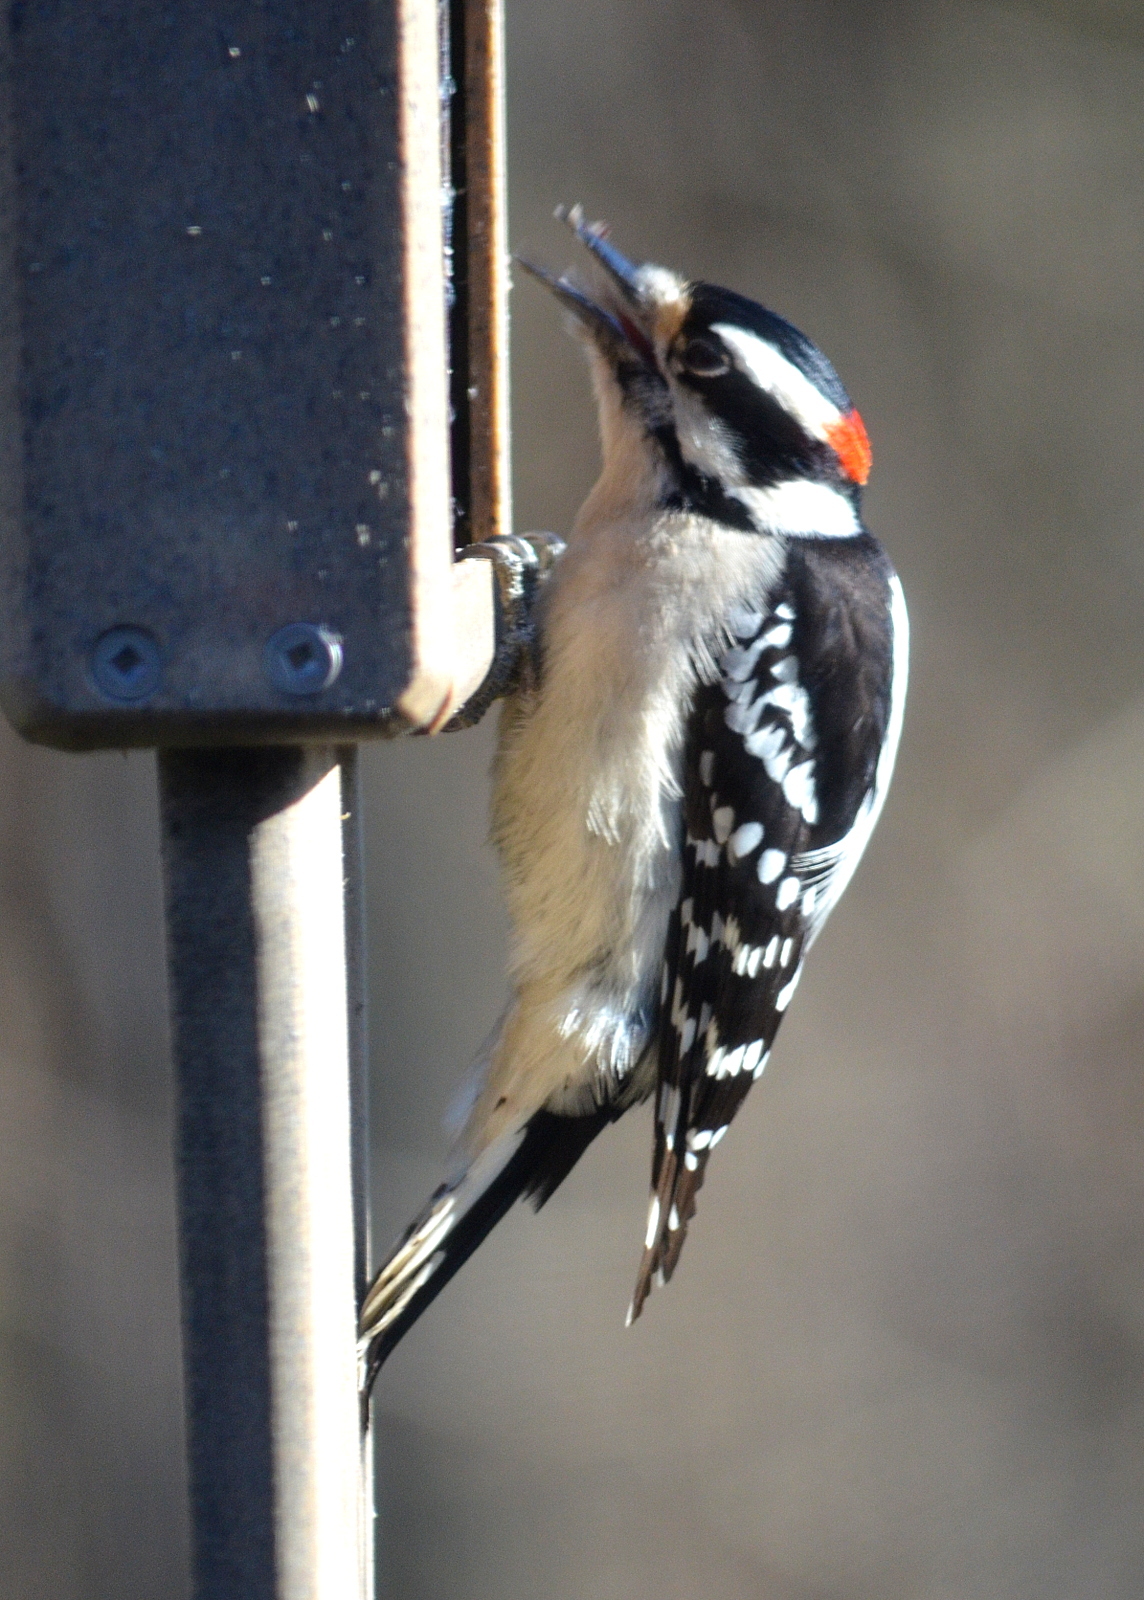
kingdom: Animalia
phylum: Chordata
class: Aves
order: Piciformes
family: Picidae
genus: Dryobates
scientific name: Dryobates pubescens
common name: Downy woodpecker
